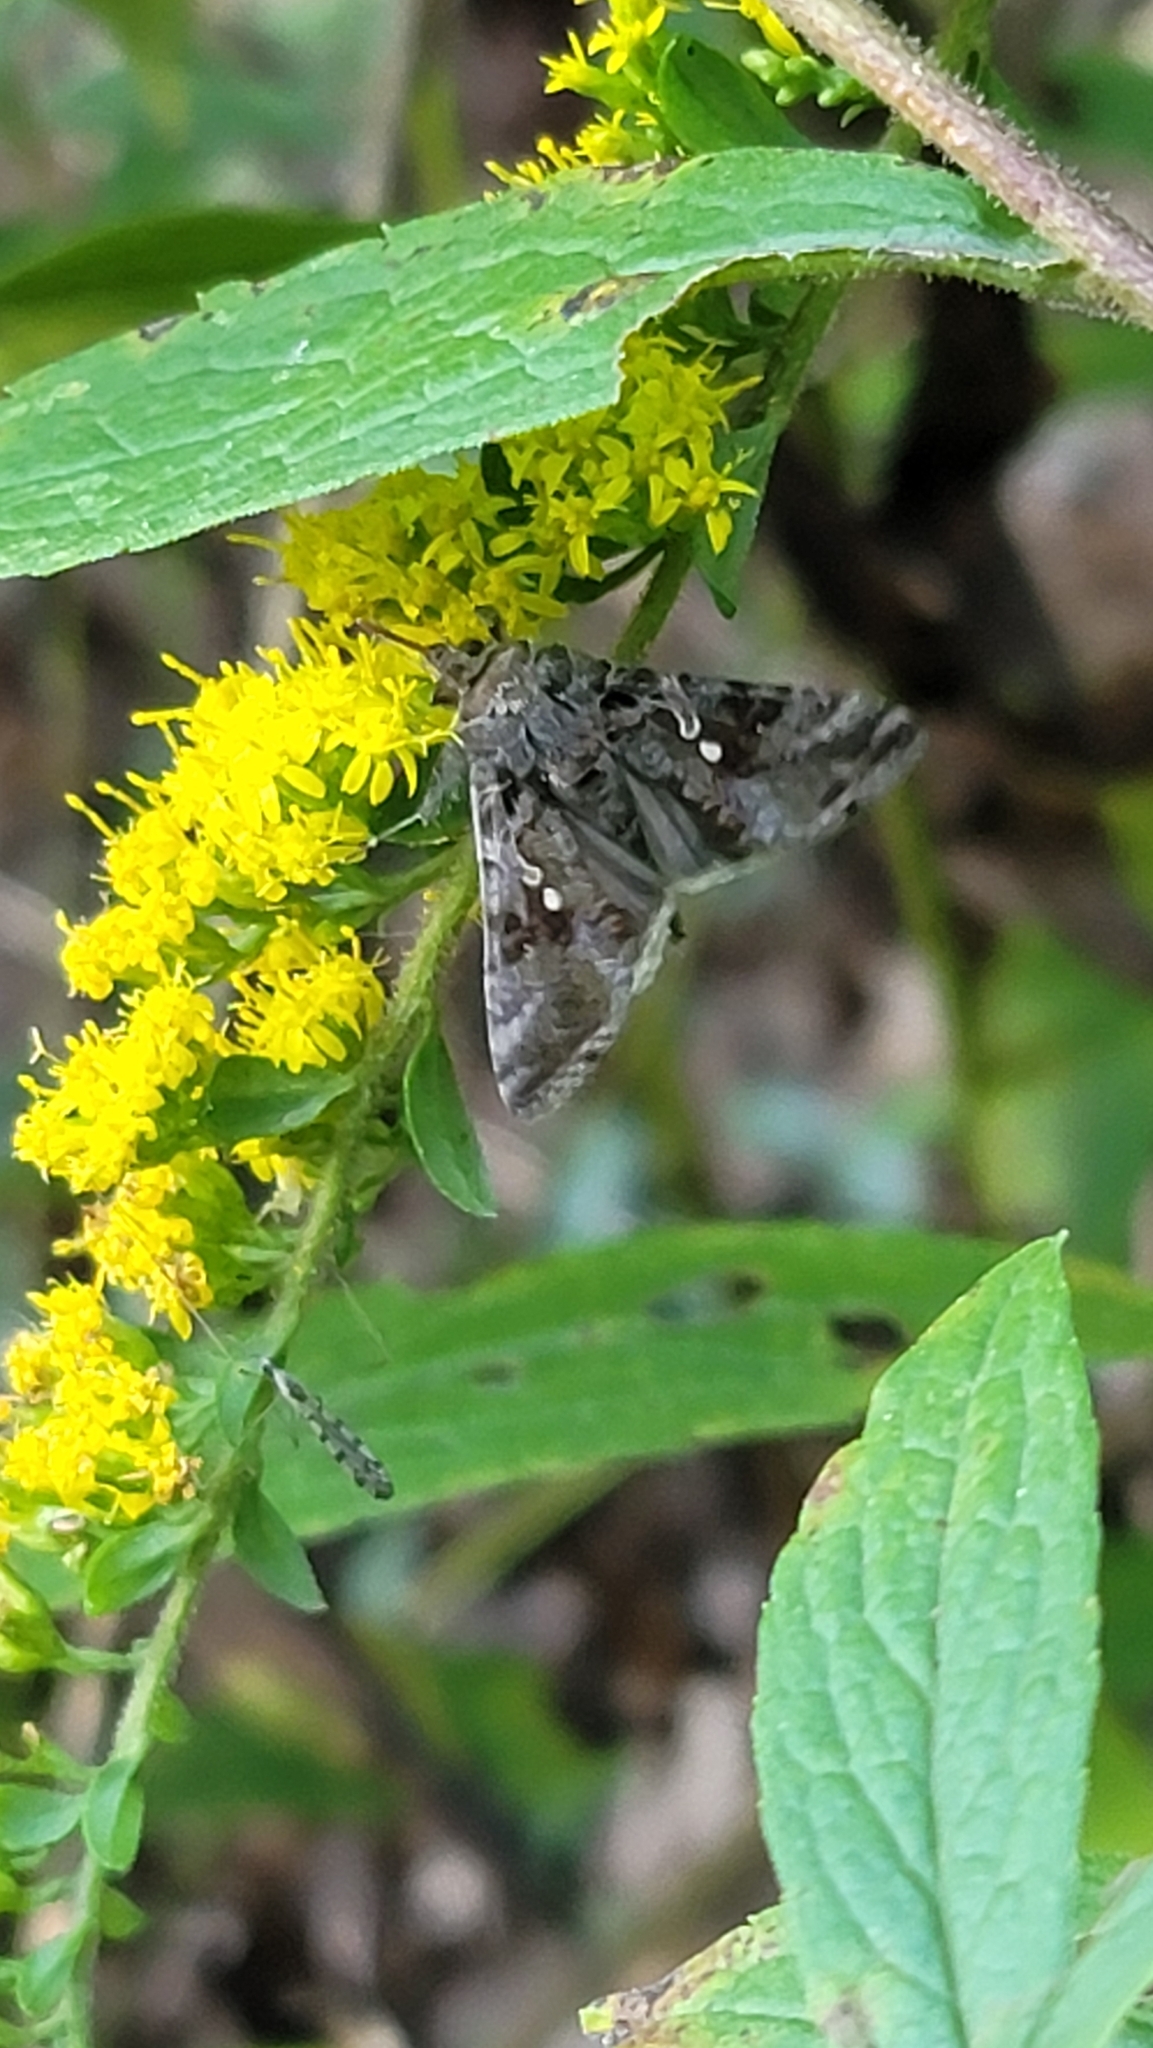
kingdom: Animalia
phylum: Arthropoda
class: Insecta
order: Lepidoptera
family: Noctuidae
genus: Chrysodeixis
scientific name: Chrysodeixis includens
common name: Cutworm moth
